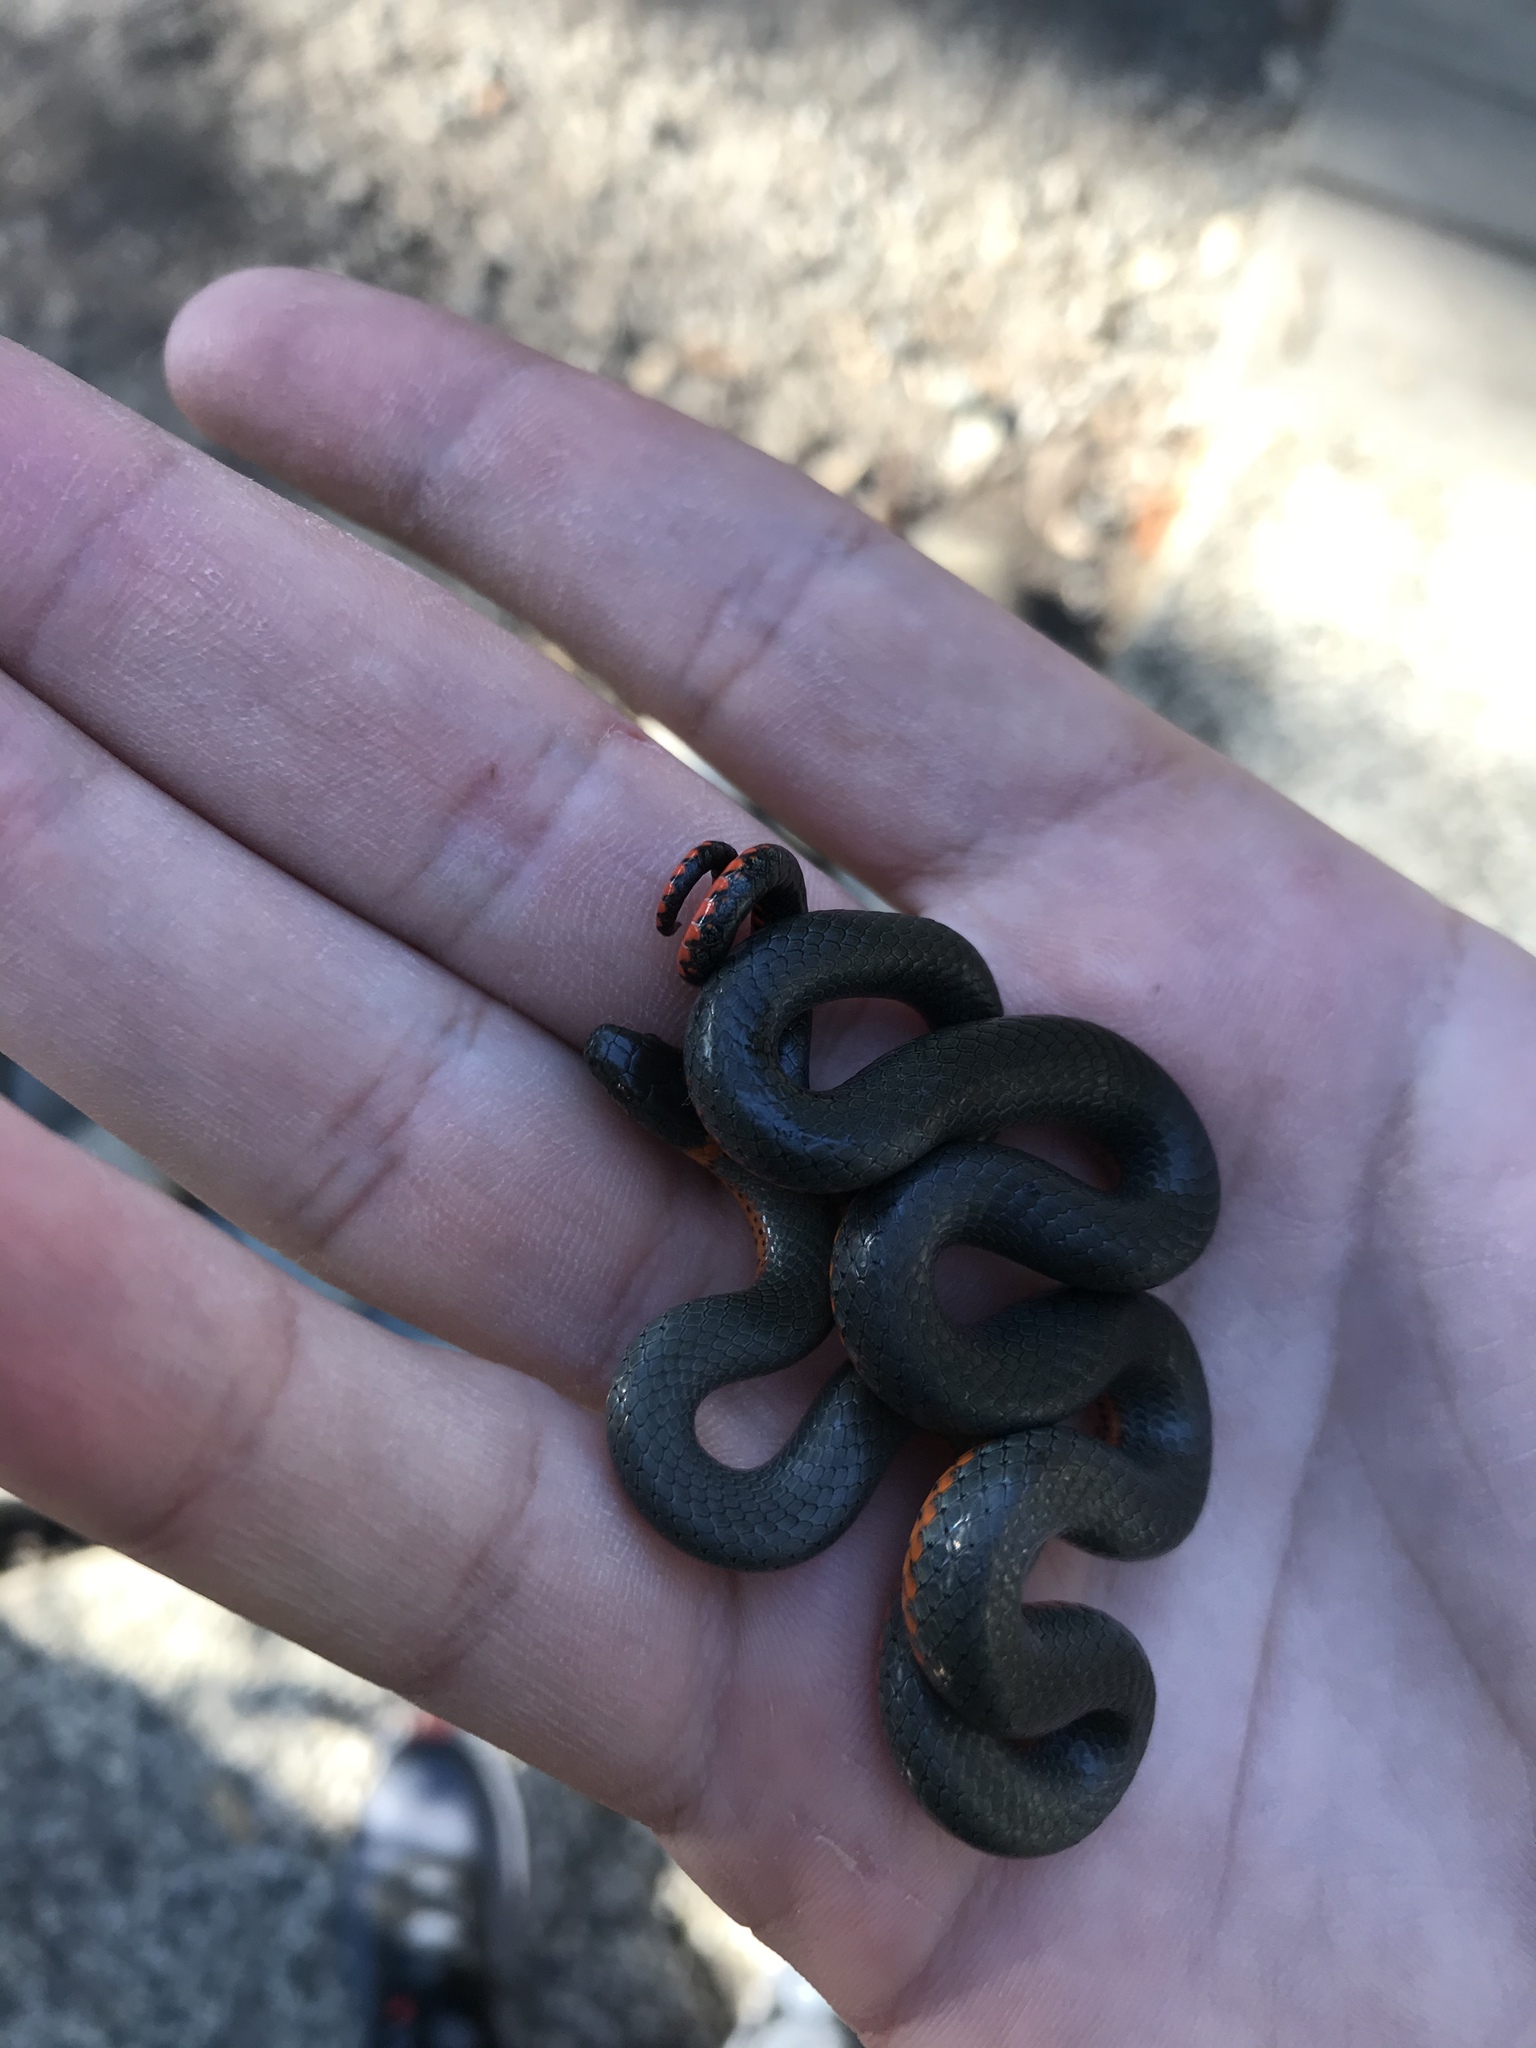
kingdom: Animalia
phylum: Chordata
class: Squamata
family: Colubridae
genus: Diadophis
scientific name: Diadophis punctatus
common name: Ringneck snake
